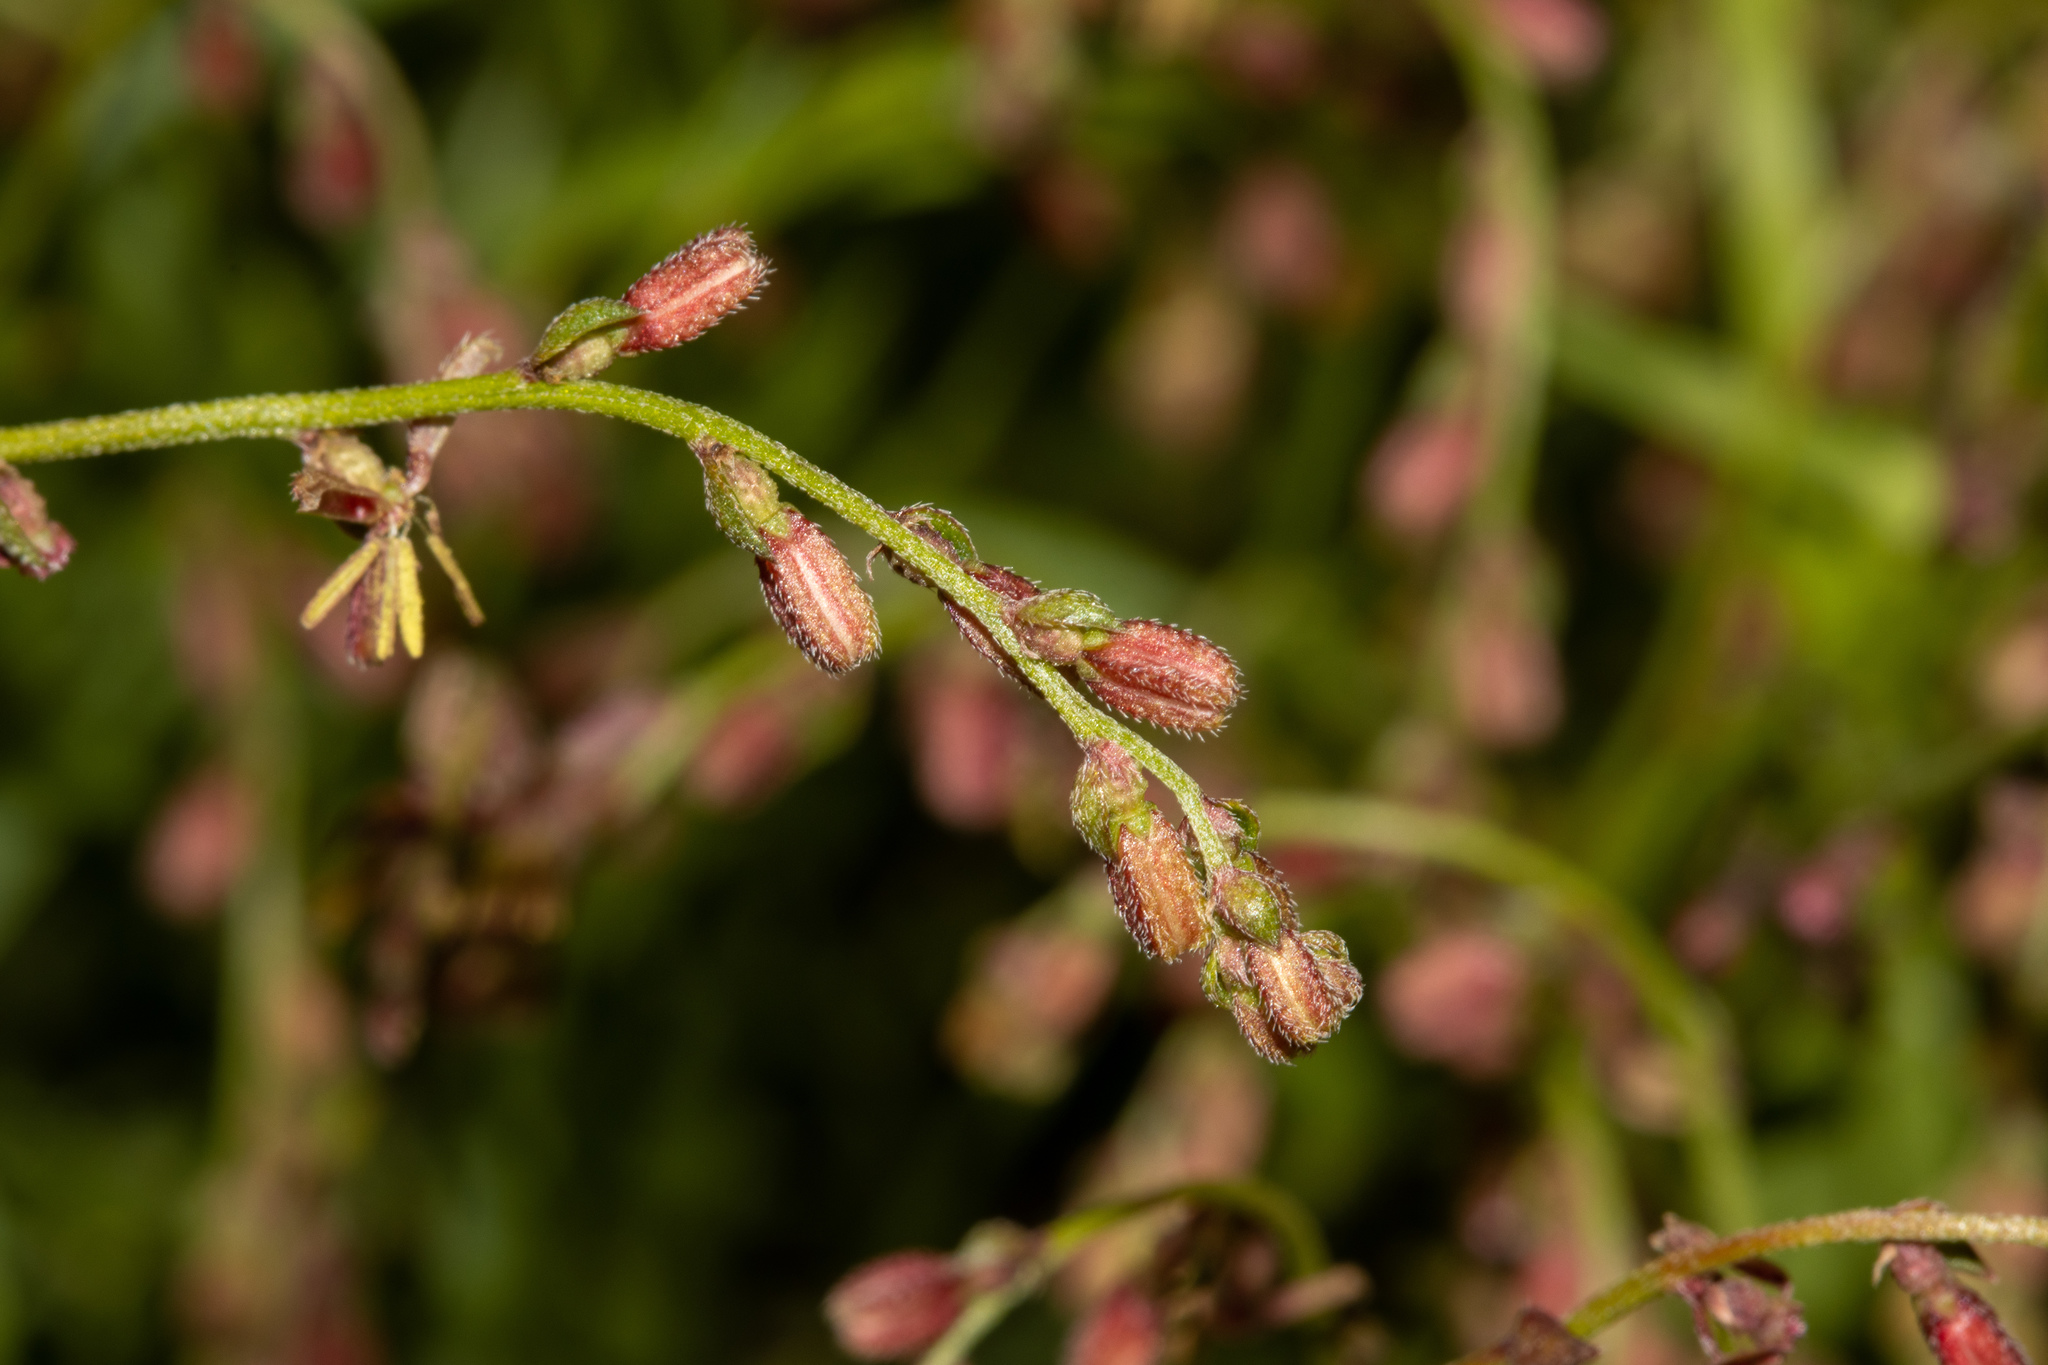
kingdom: Plantae
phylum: Tracheophyta
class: Magnoliopsida
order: Saxifragales
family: Haloragaceae
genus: Gonocarpus
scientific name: Gonocarpus tetragynus
